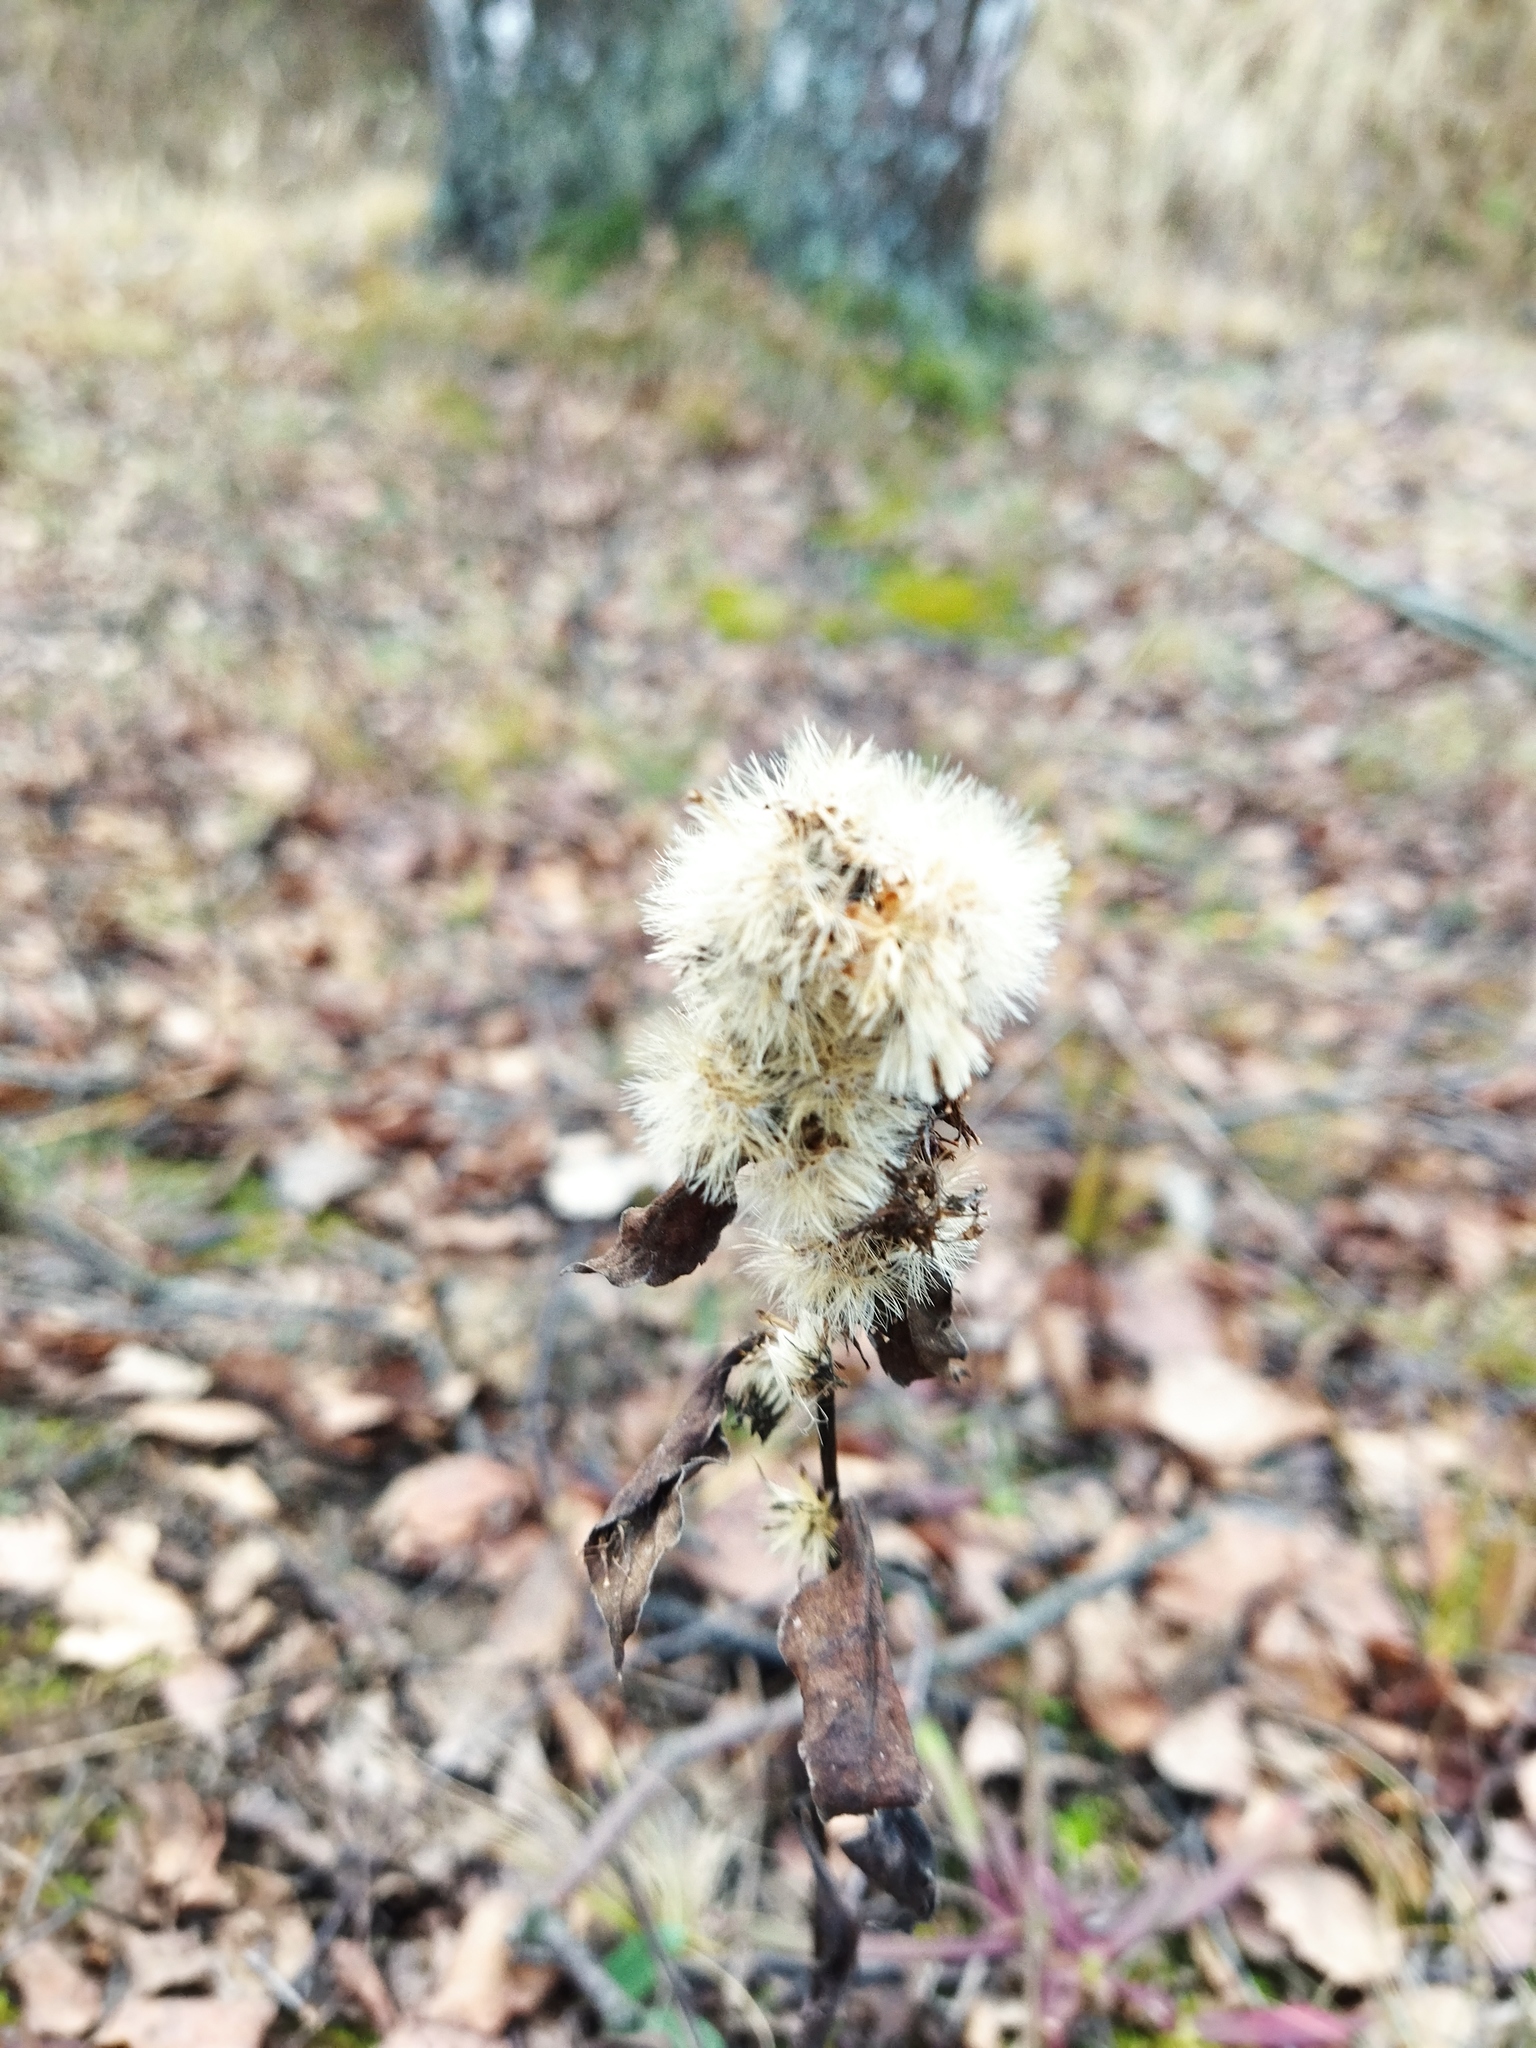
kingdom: Plantae
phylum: Tracheophyta
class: Magnoliopsida
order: Asterales
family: Asteraceae
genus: Solidago
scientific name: Solidago virgaurea
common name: Goldenrod
